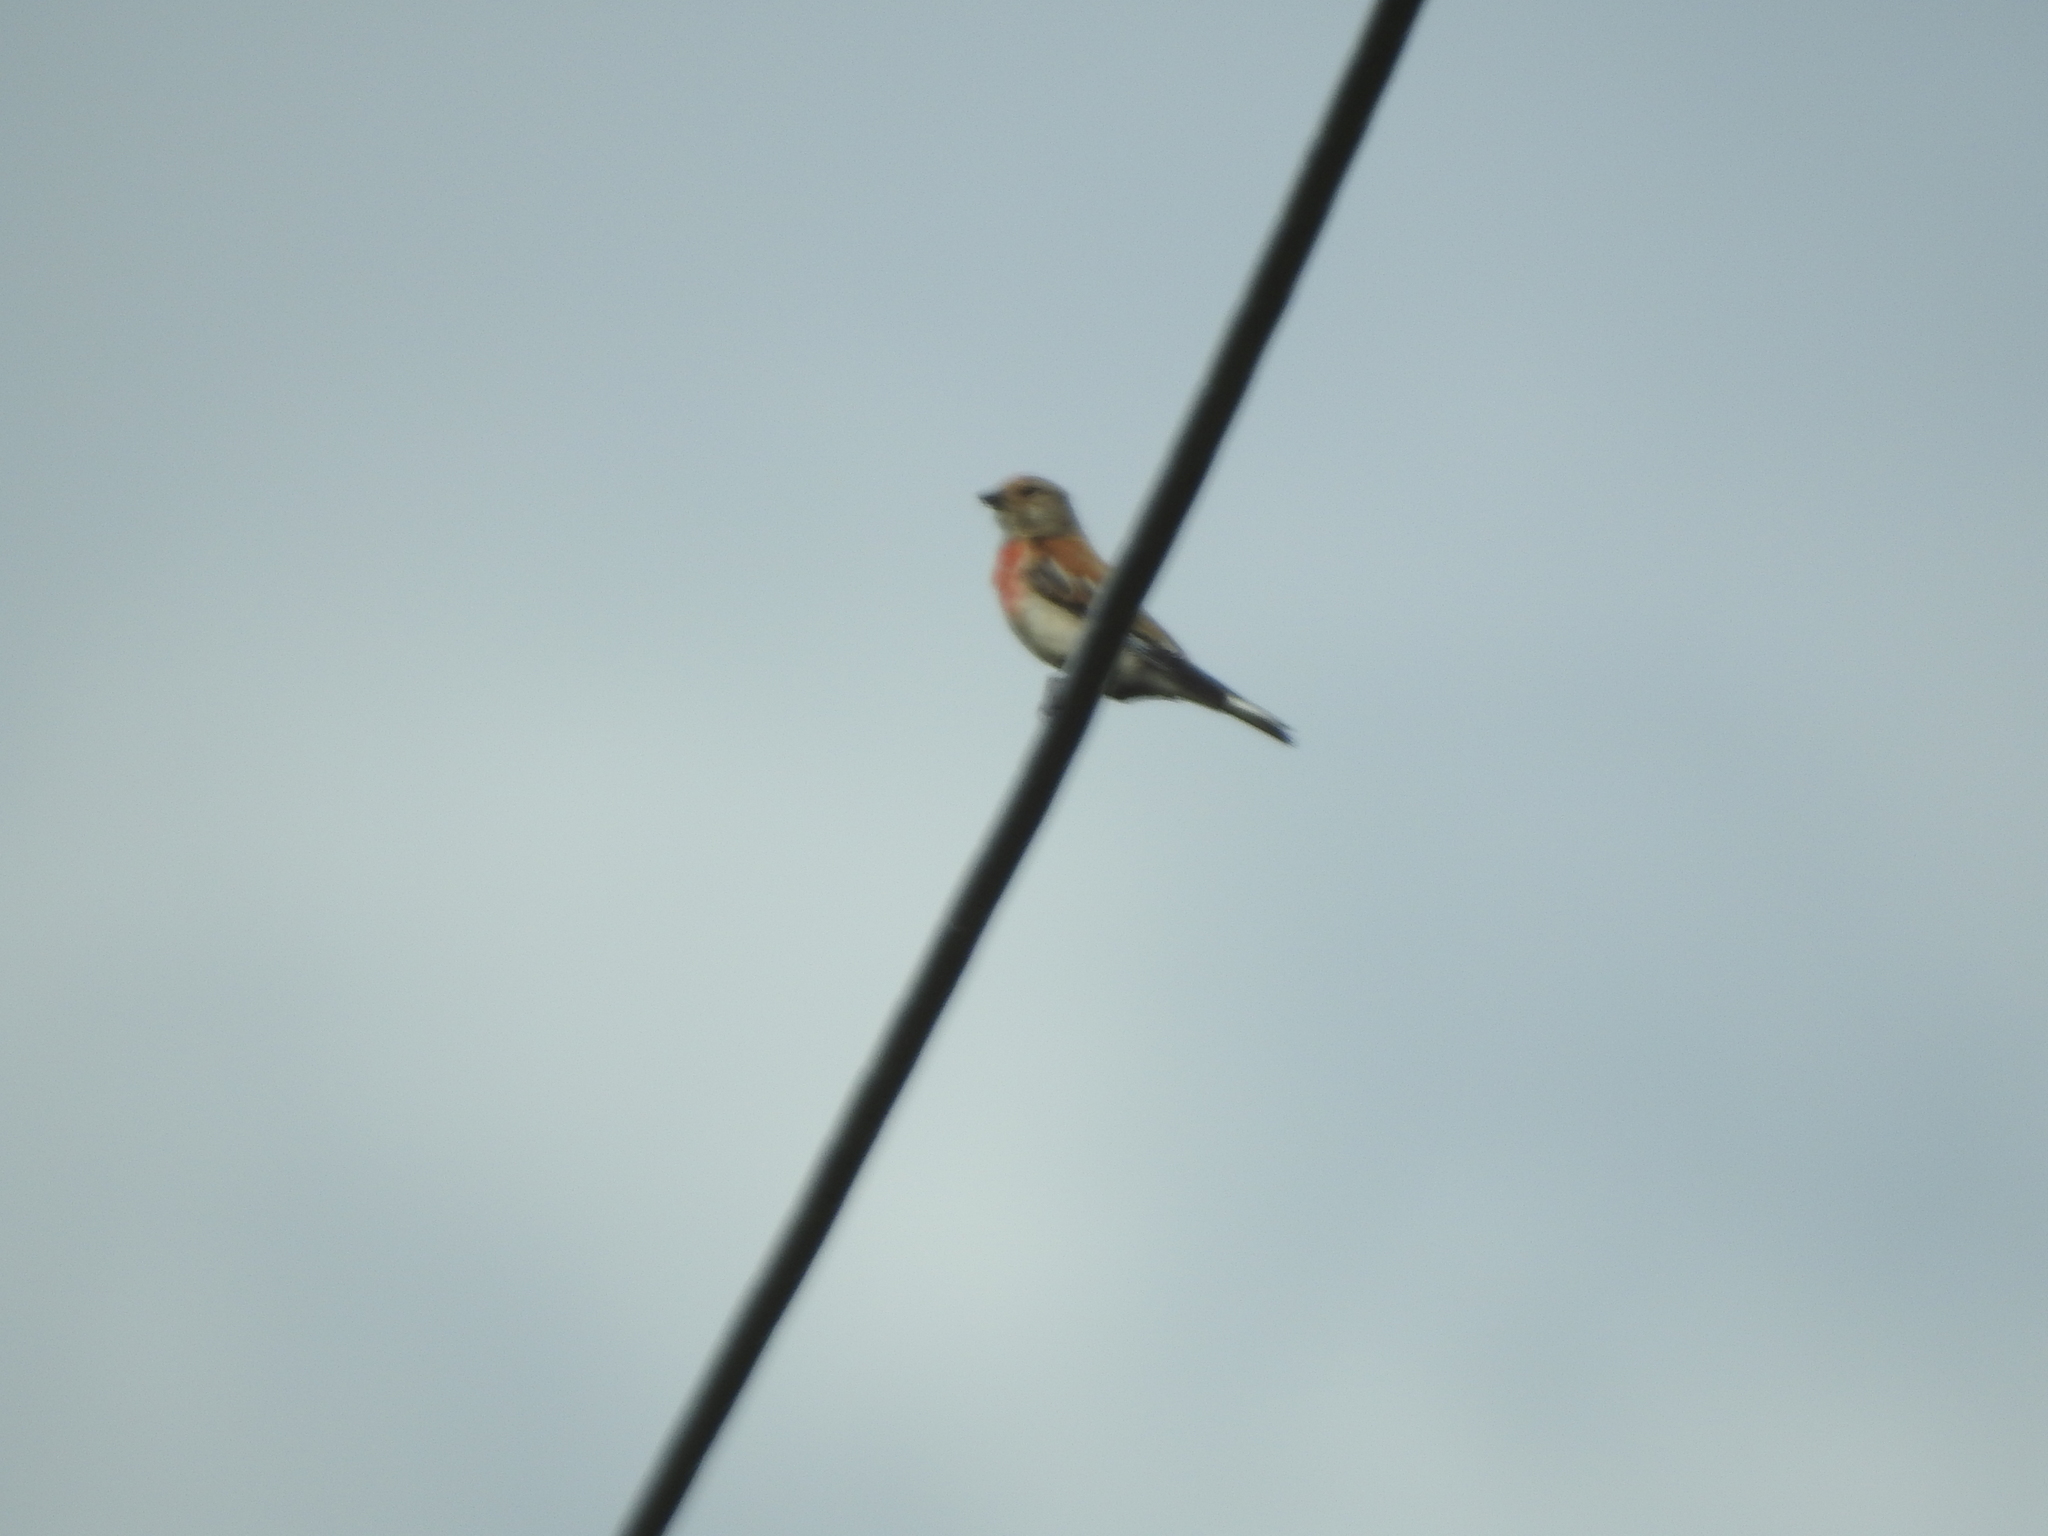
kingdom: Animalia
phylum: Chordata
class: Aves
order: Passeriformes
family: Fringillidae
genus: Linaria
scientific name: Linaria cannabina
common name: Common linnet
